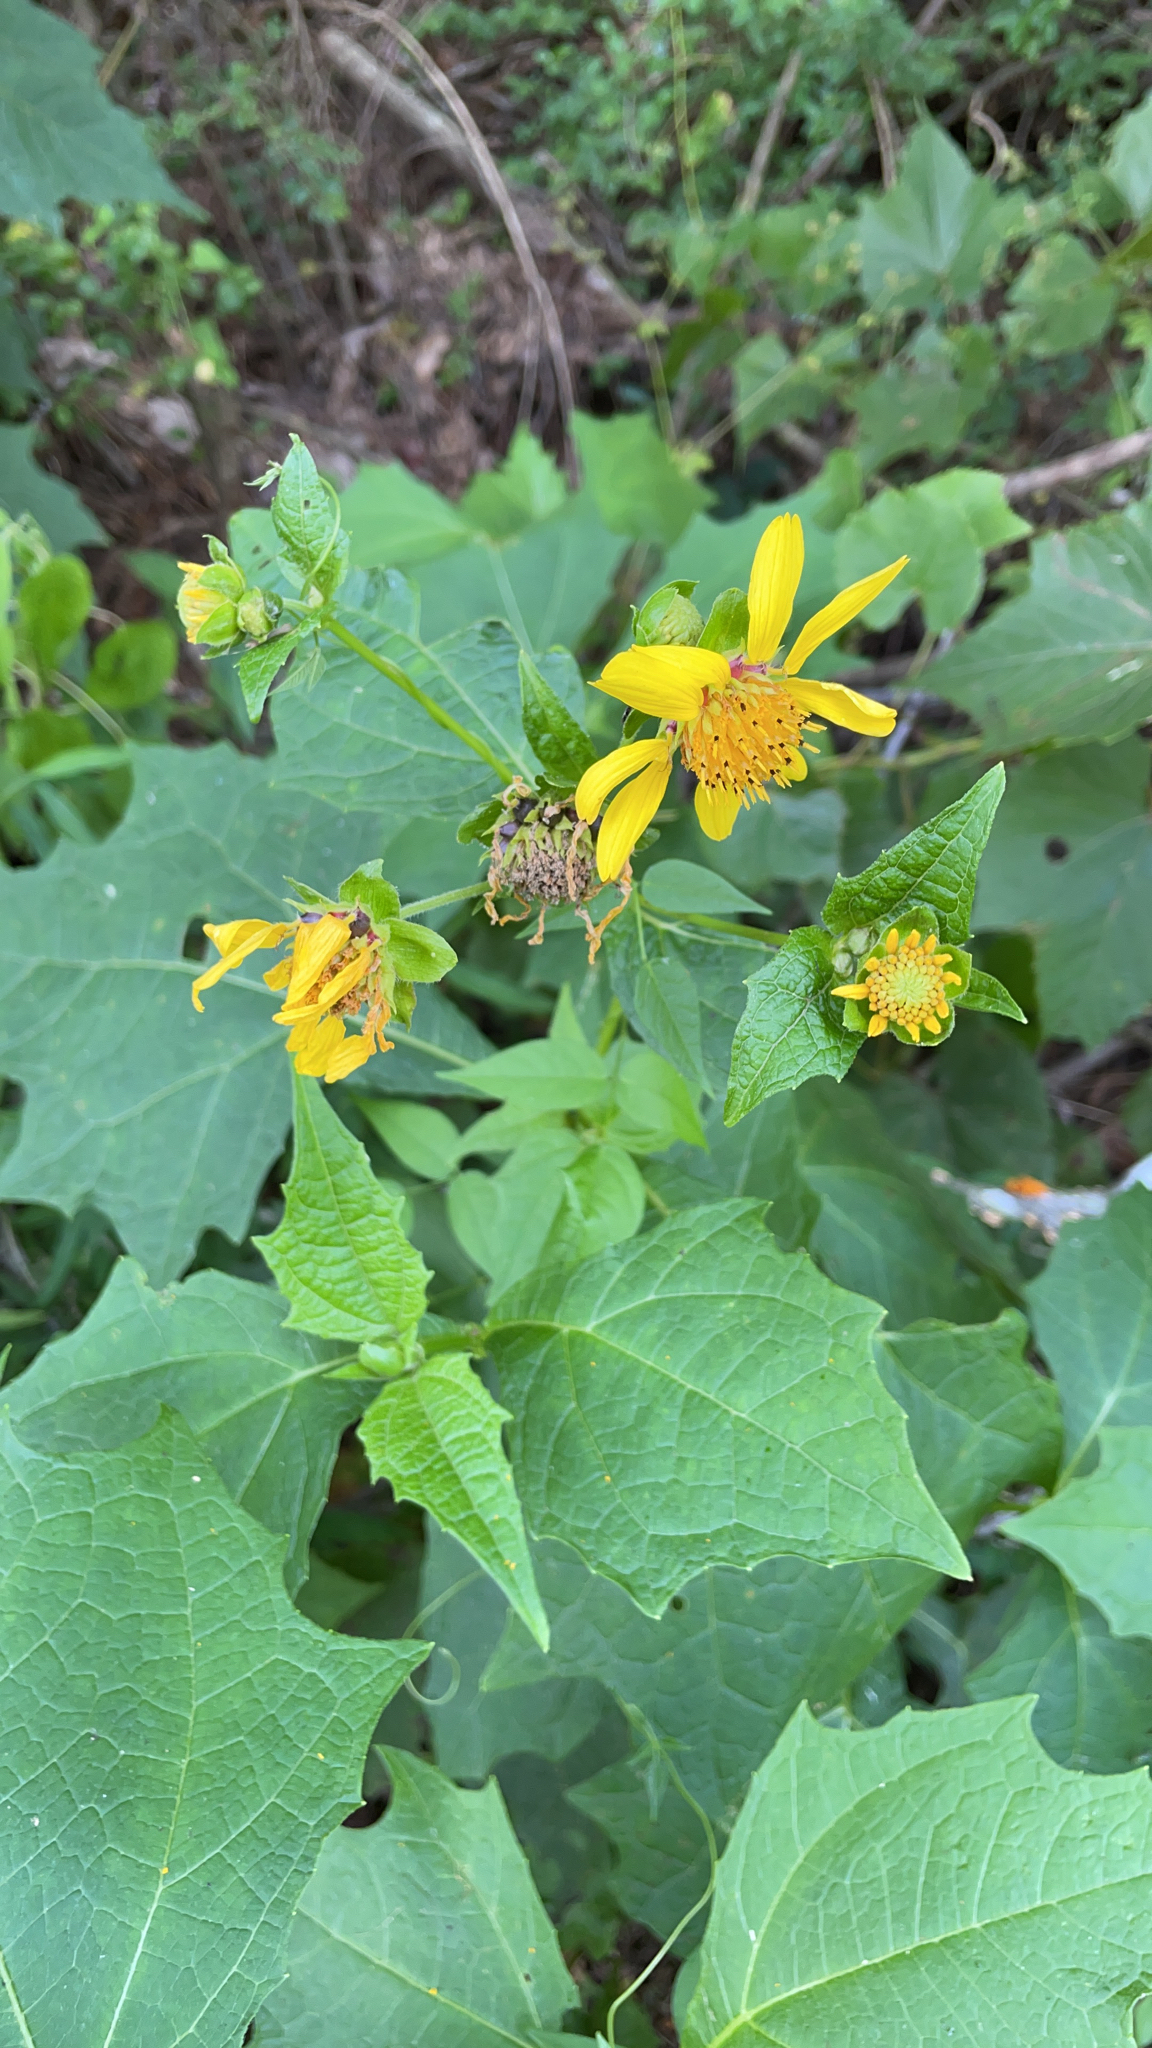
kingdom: Plantae
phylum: Tracheophyta
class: Magnoliopsida
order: Asterales
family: Asteraceae
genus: Smallanthus
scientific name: Smallanthus uvedalia
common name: Bear's-foot
